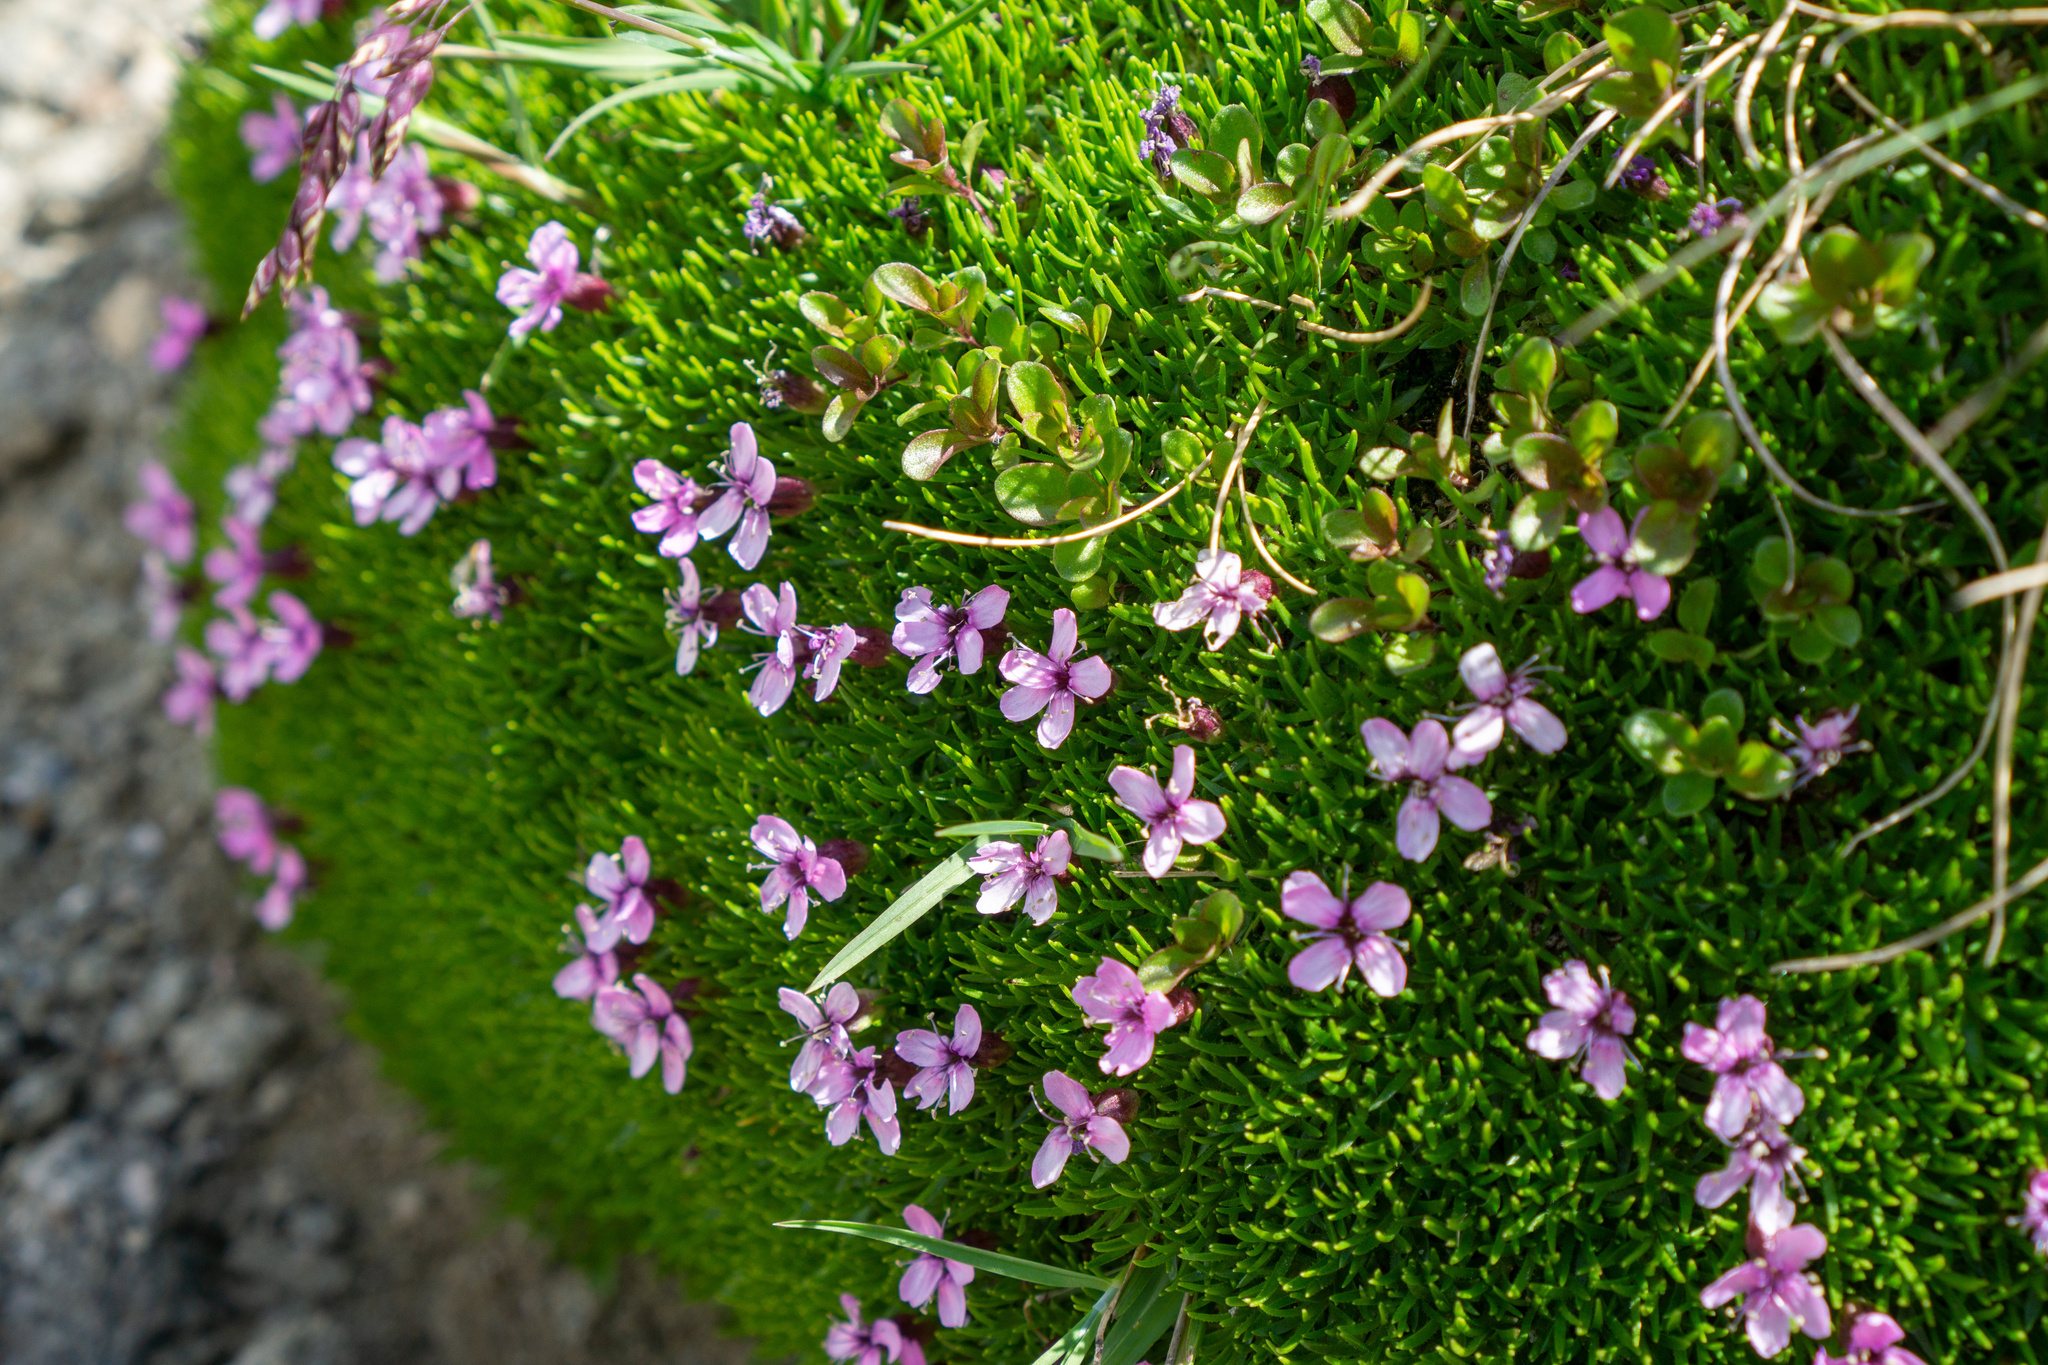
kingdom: Plantae
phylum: Tracheophyta
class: Magnoliopsida
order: Caryophyllales
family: Caryophyllaceae
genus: Silene
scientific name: Silene acaulis
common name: Moss campion
